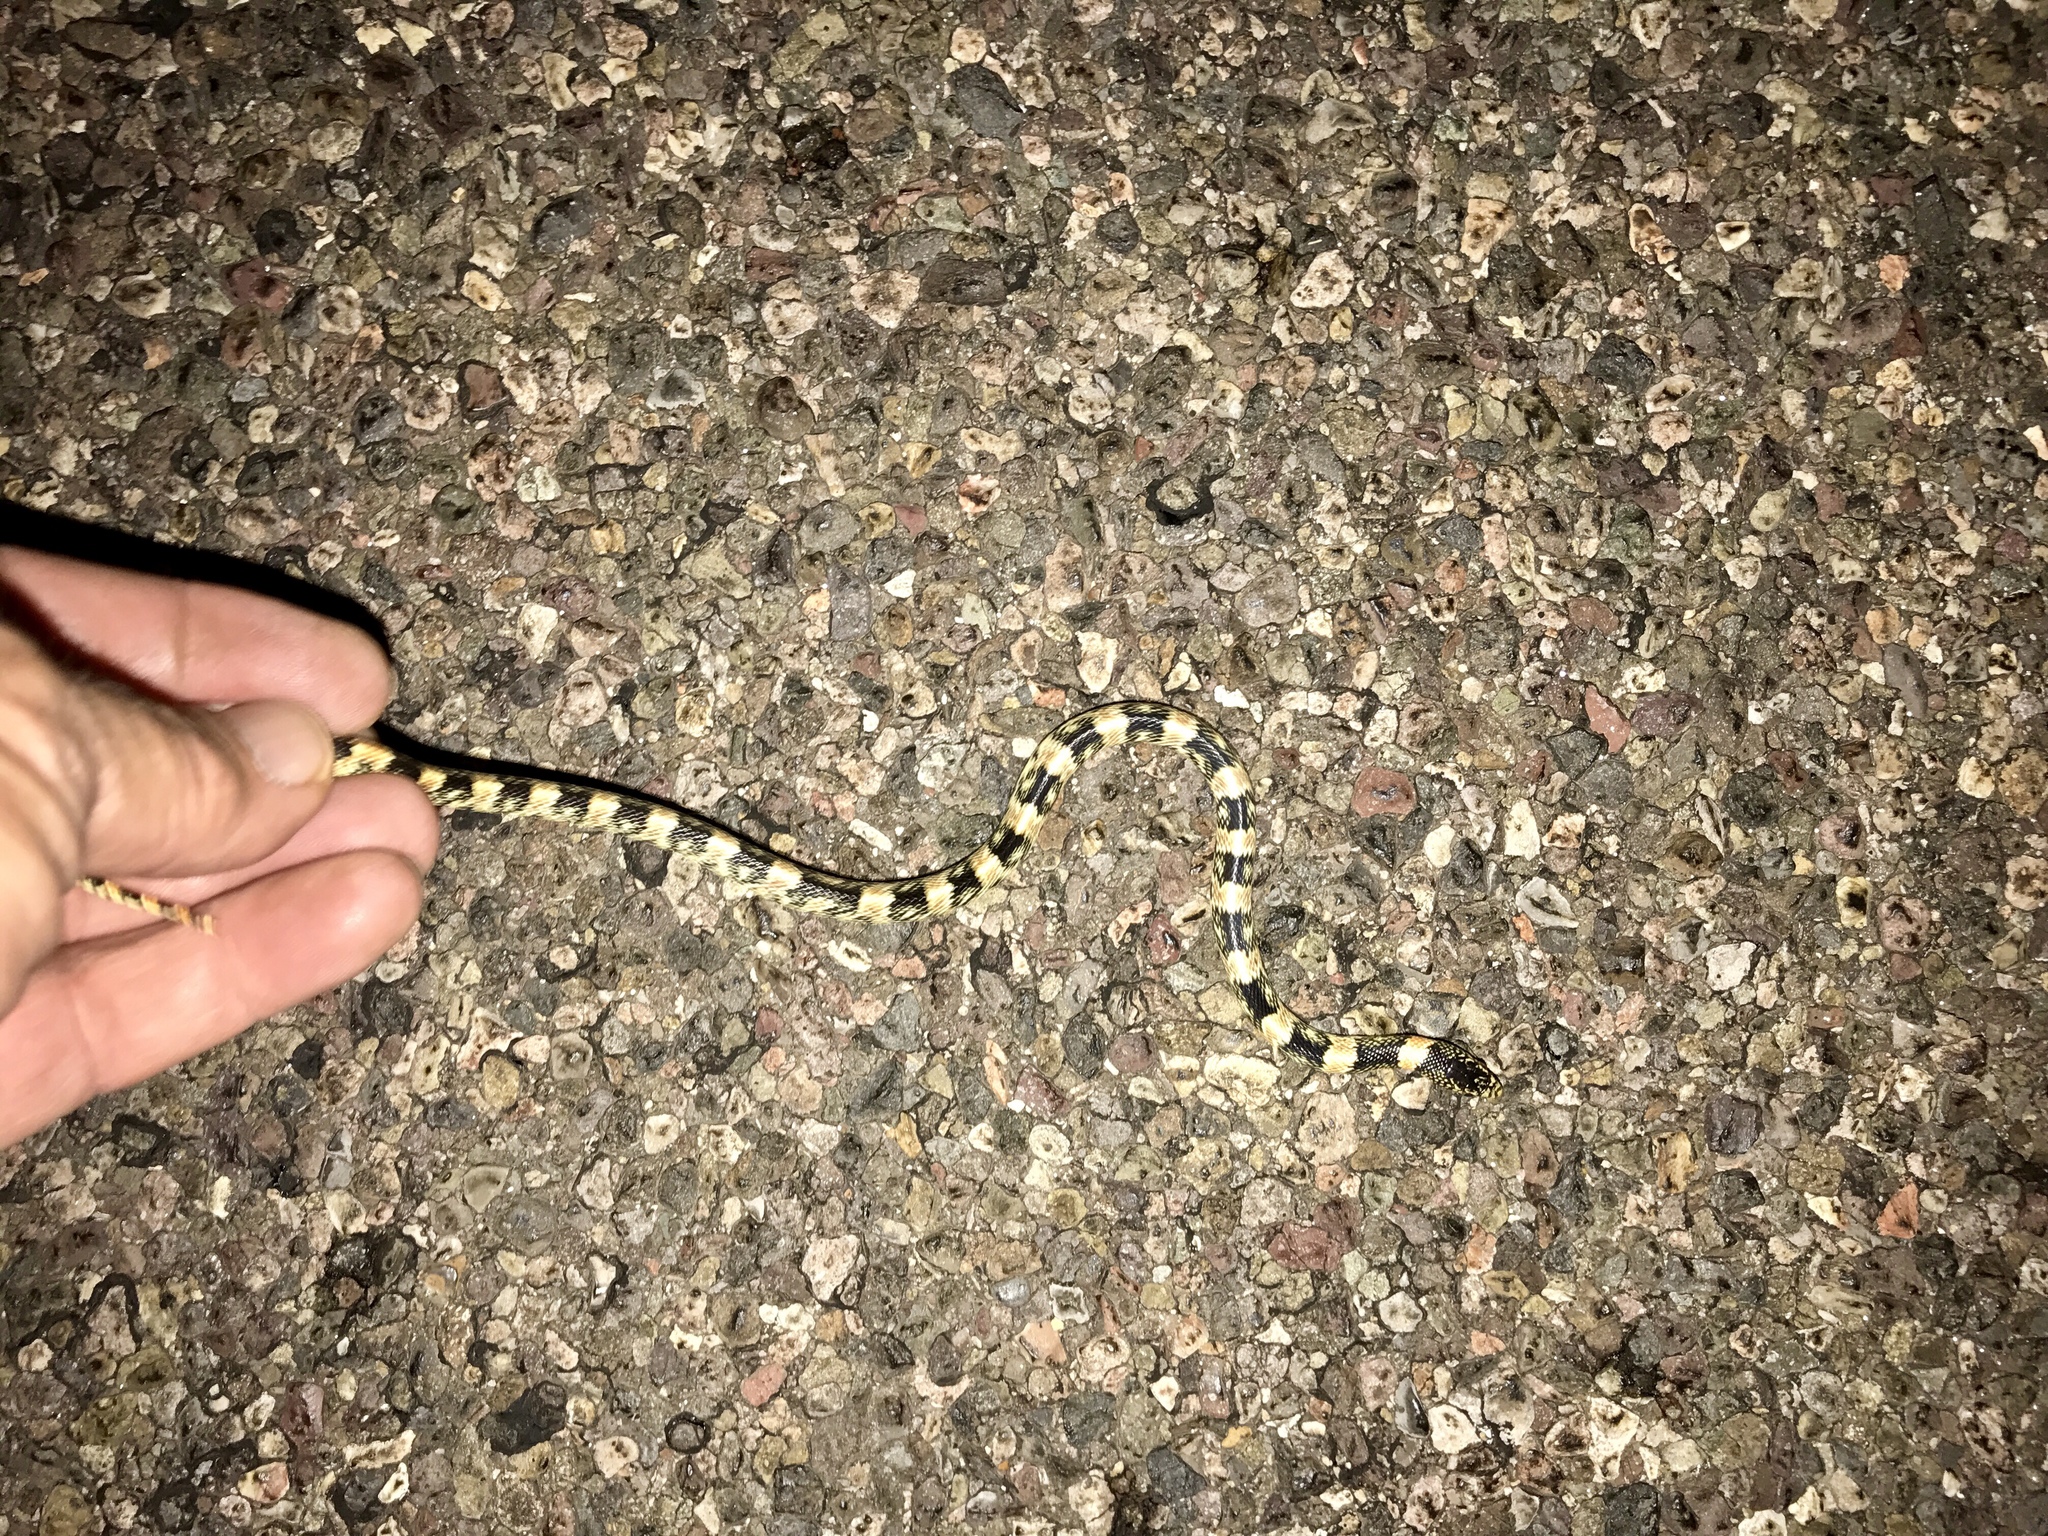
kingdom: Animalia
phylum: Chordata
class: Squamata
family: Colubridae
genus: Rhinocheilus
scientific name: Rhinocheilus lecontei
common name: Longnose snake
